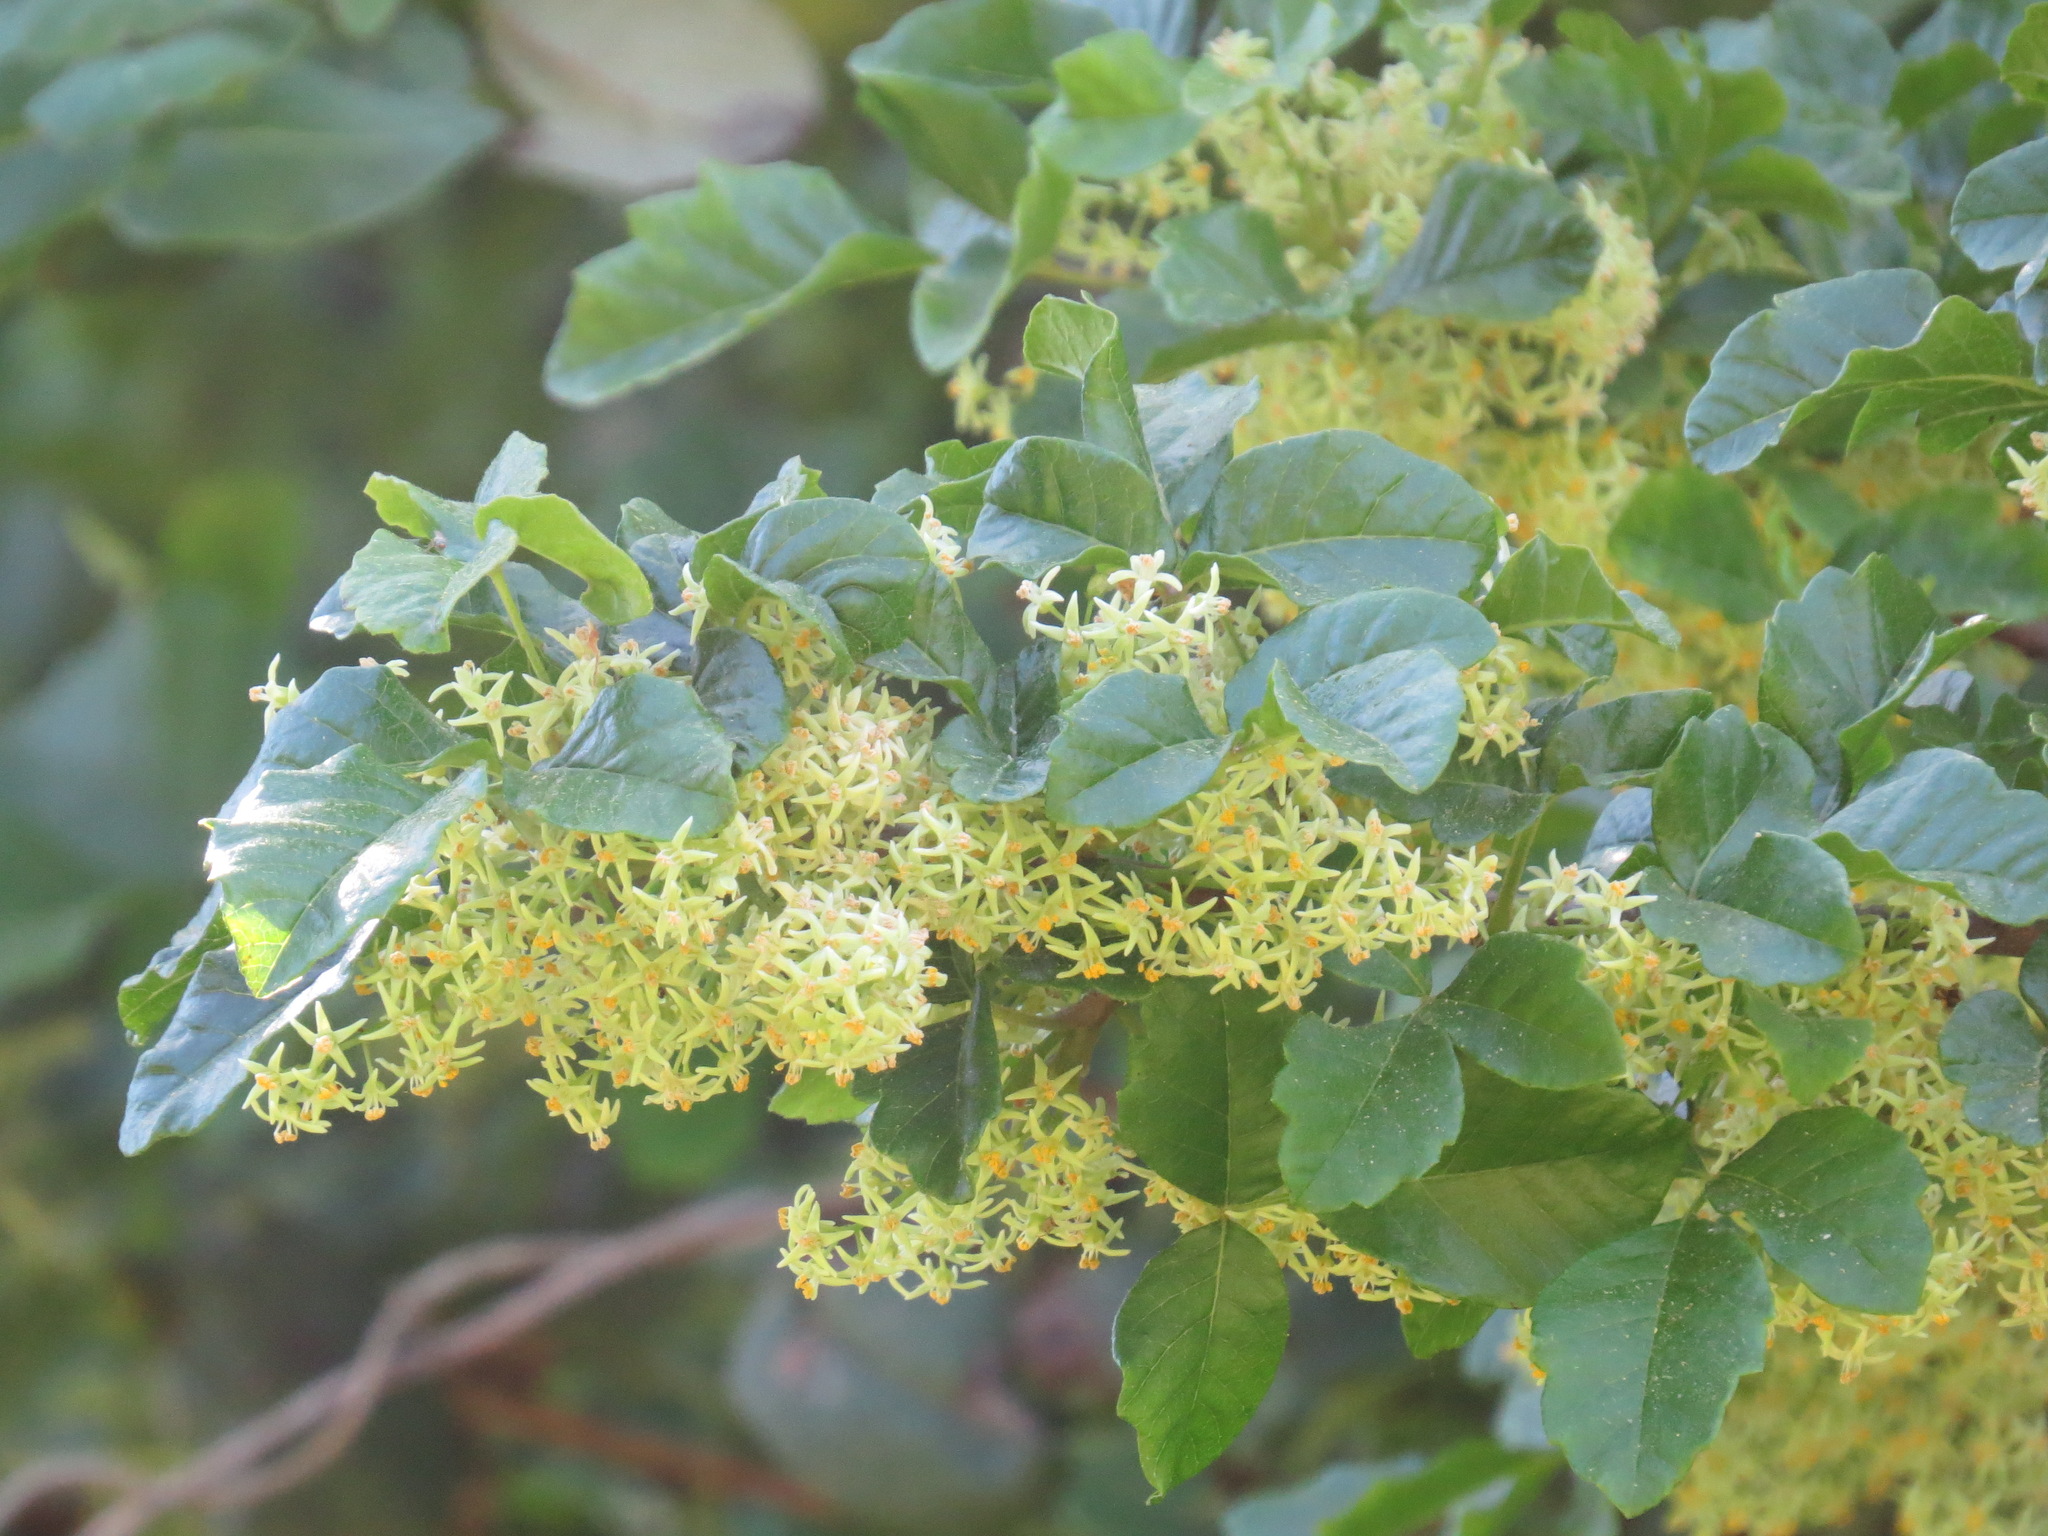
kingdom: Plantae
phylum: Tracheophyta
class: Magnoliopsida
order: Sapindales
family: Anacardiaceae
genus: Toxicodendron
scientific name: Toxicodendron diversilobum
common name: Pacific poison-oak
